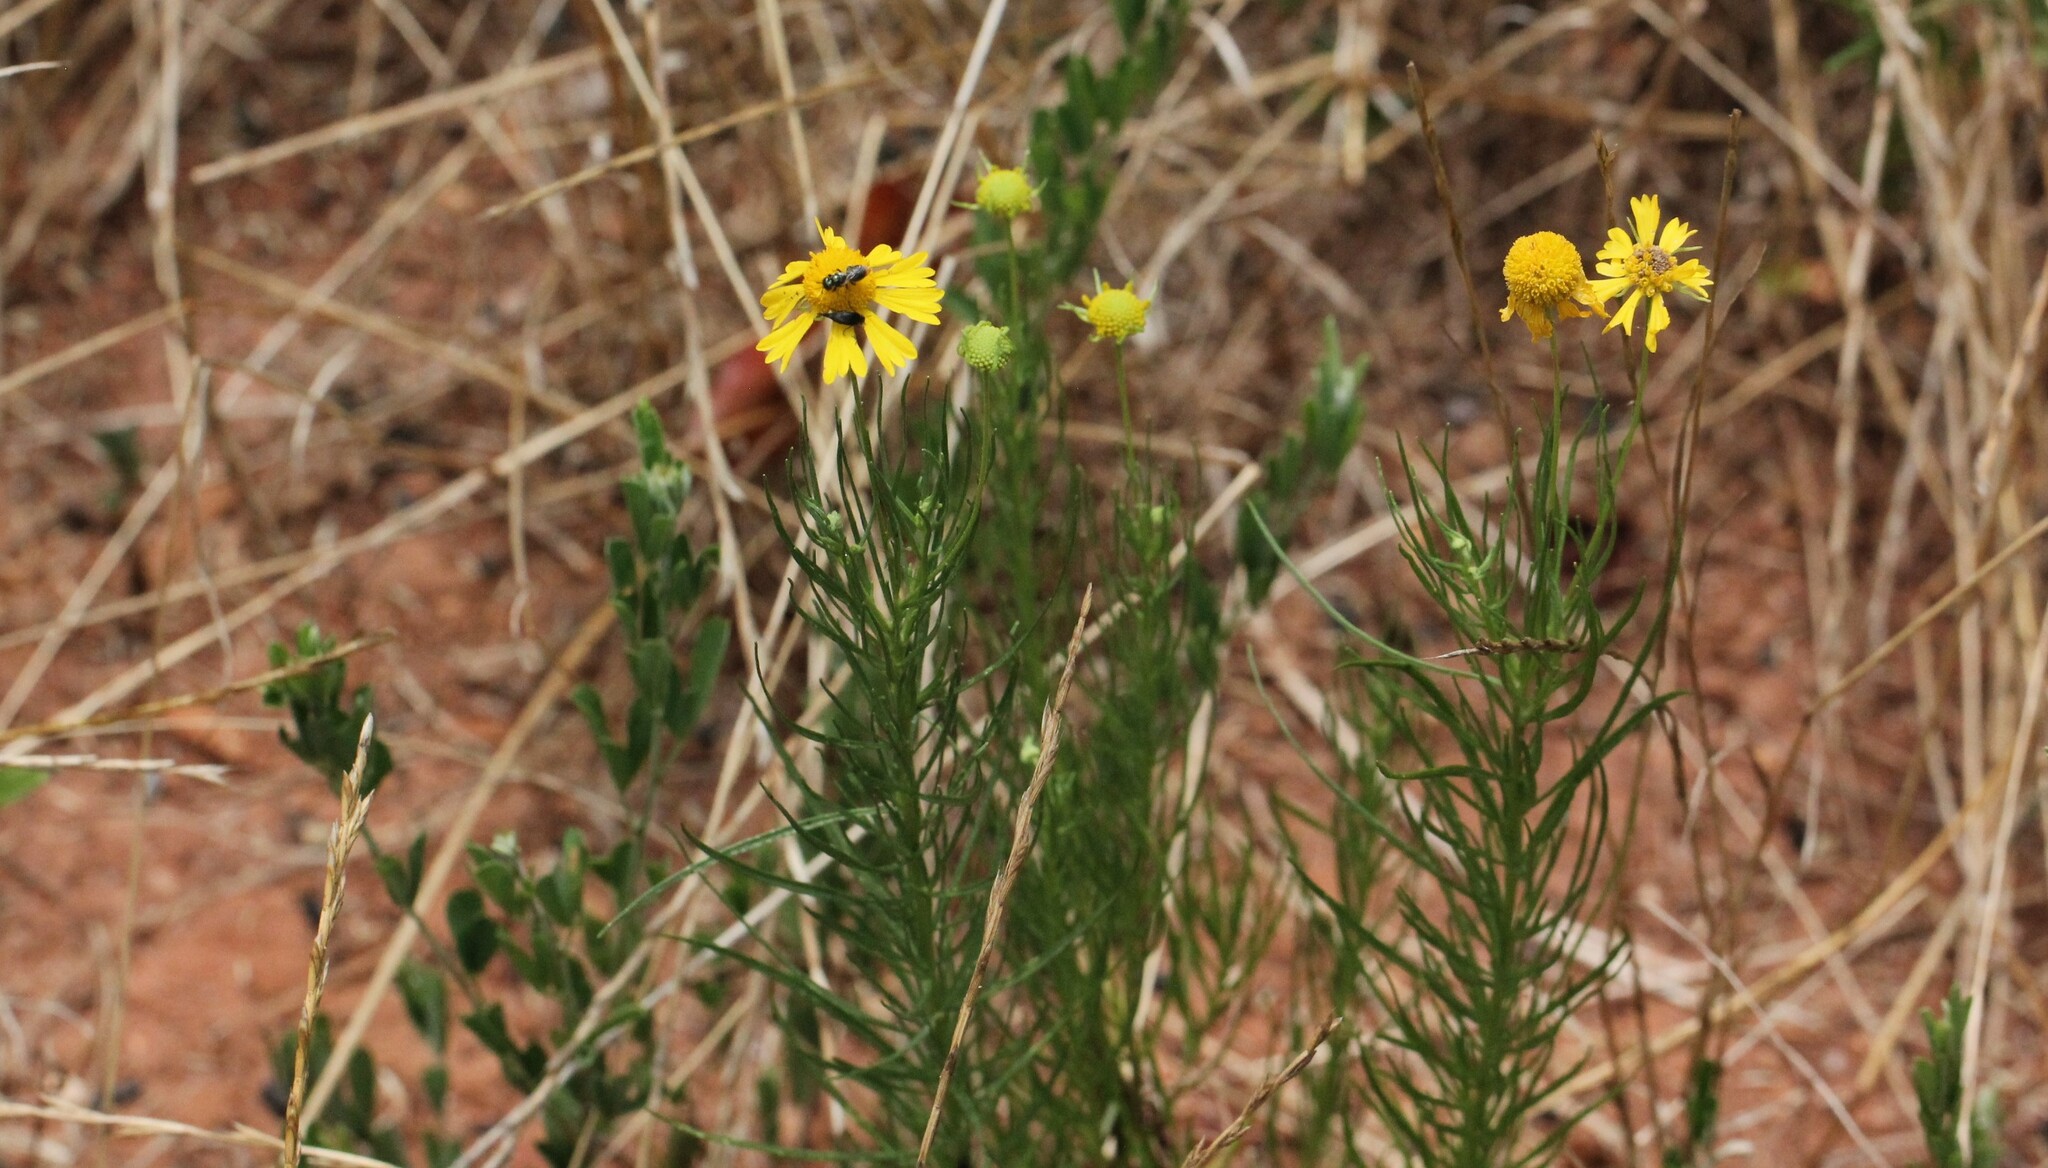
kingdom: Plantae
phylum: Tracheophyta
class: Magnoliopsida
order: Asterales
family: Asteraceae
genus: Helenium
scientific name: Helenium amarum
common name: Bitter sneezeweed
